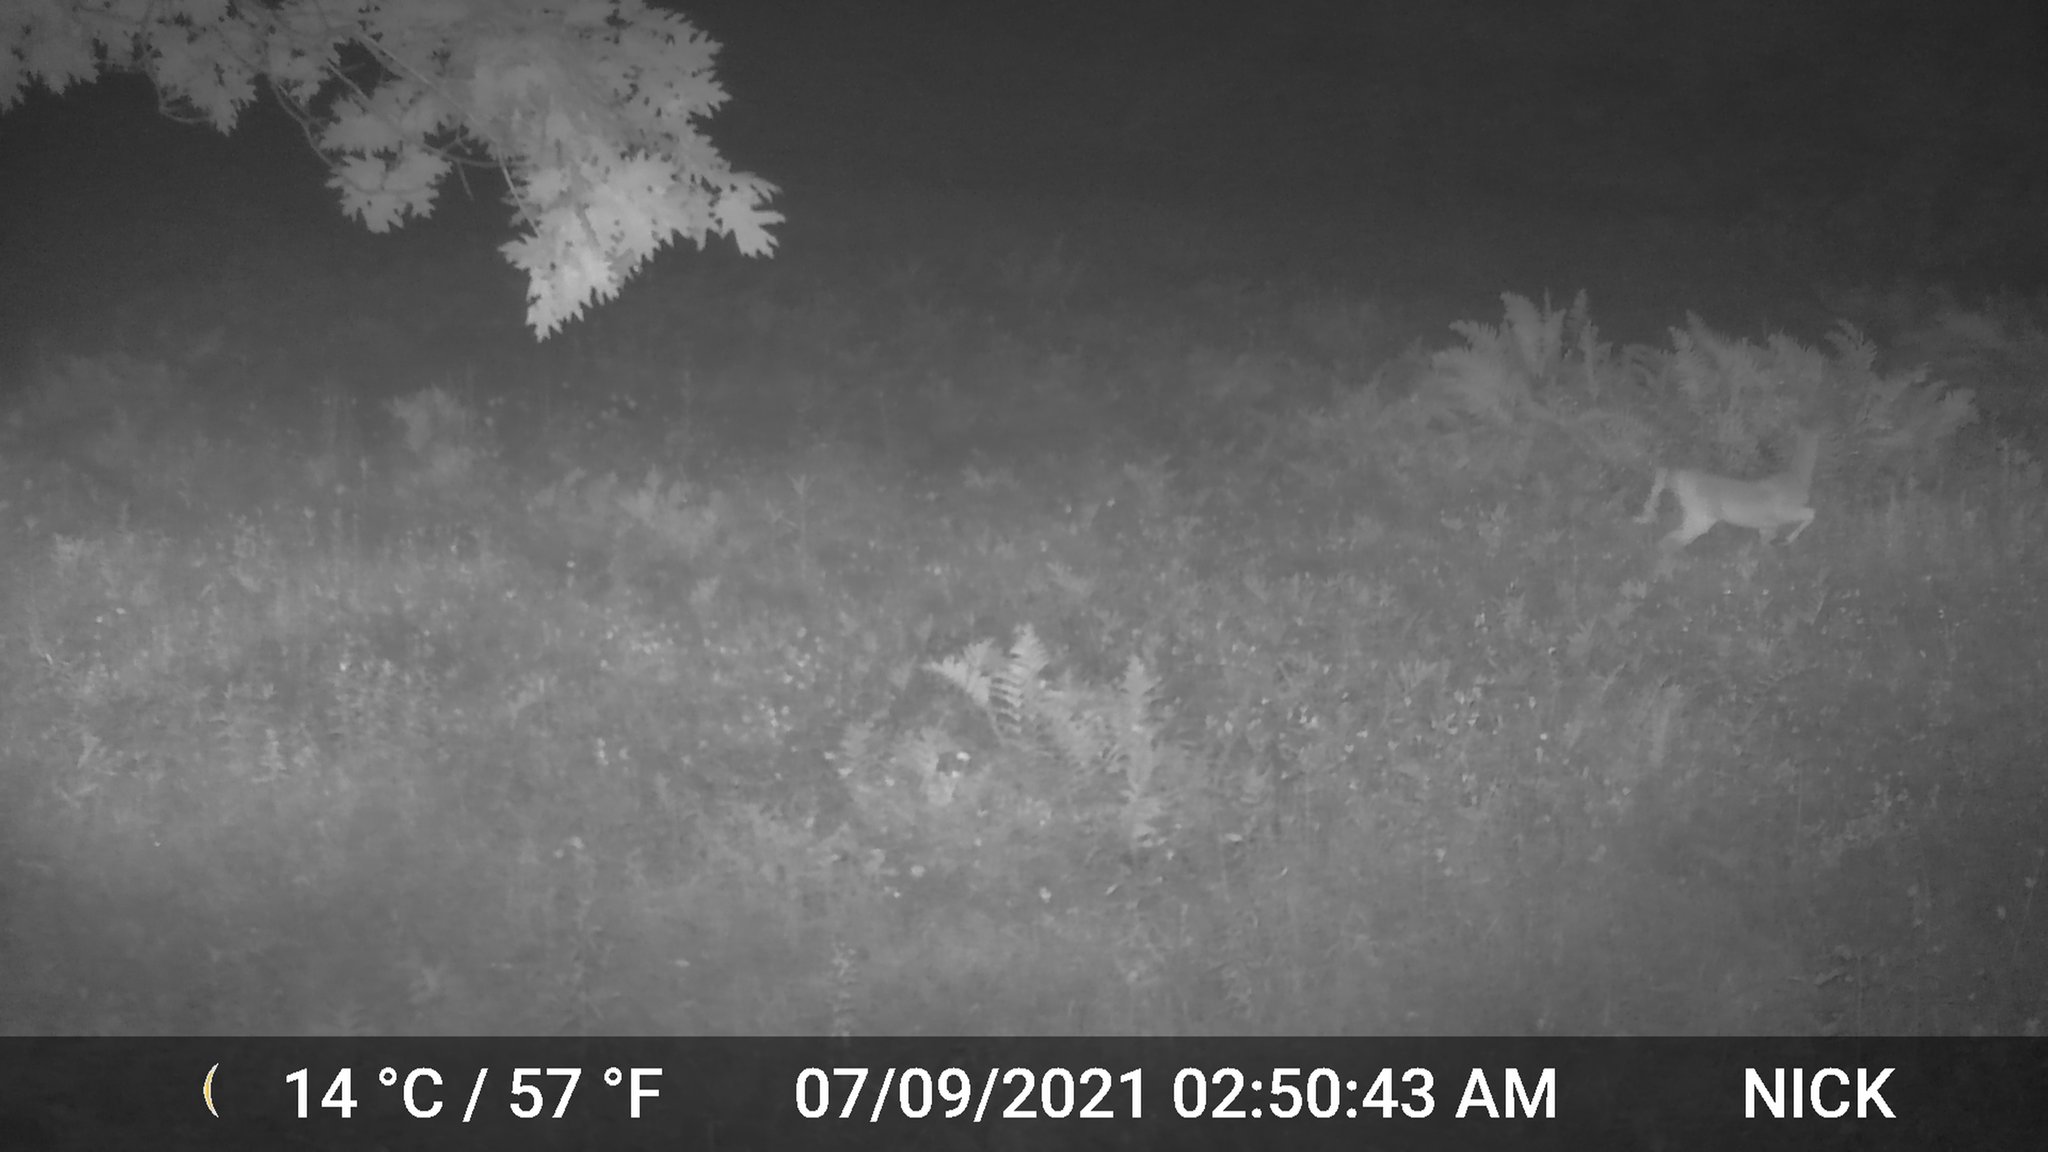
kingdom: Animalia
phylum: Chordata
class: Mammalia
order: Artiodactyla
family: Cervidae
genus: Odocoileus
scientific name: Odocoileus virginianus
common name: White-tailed deer
